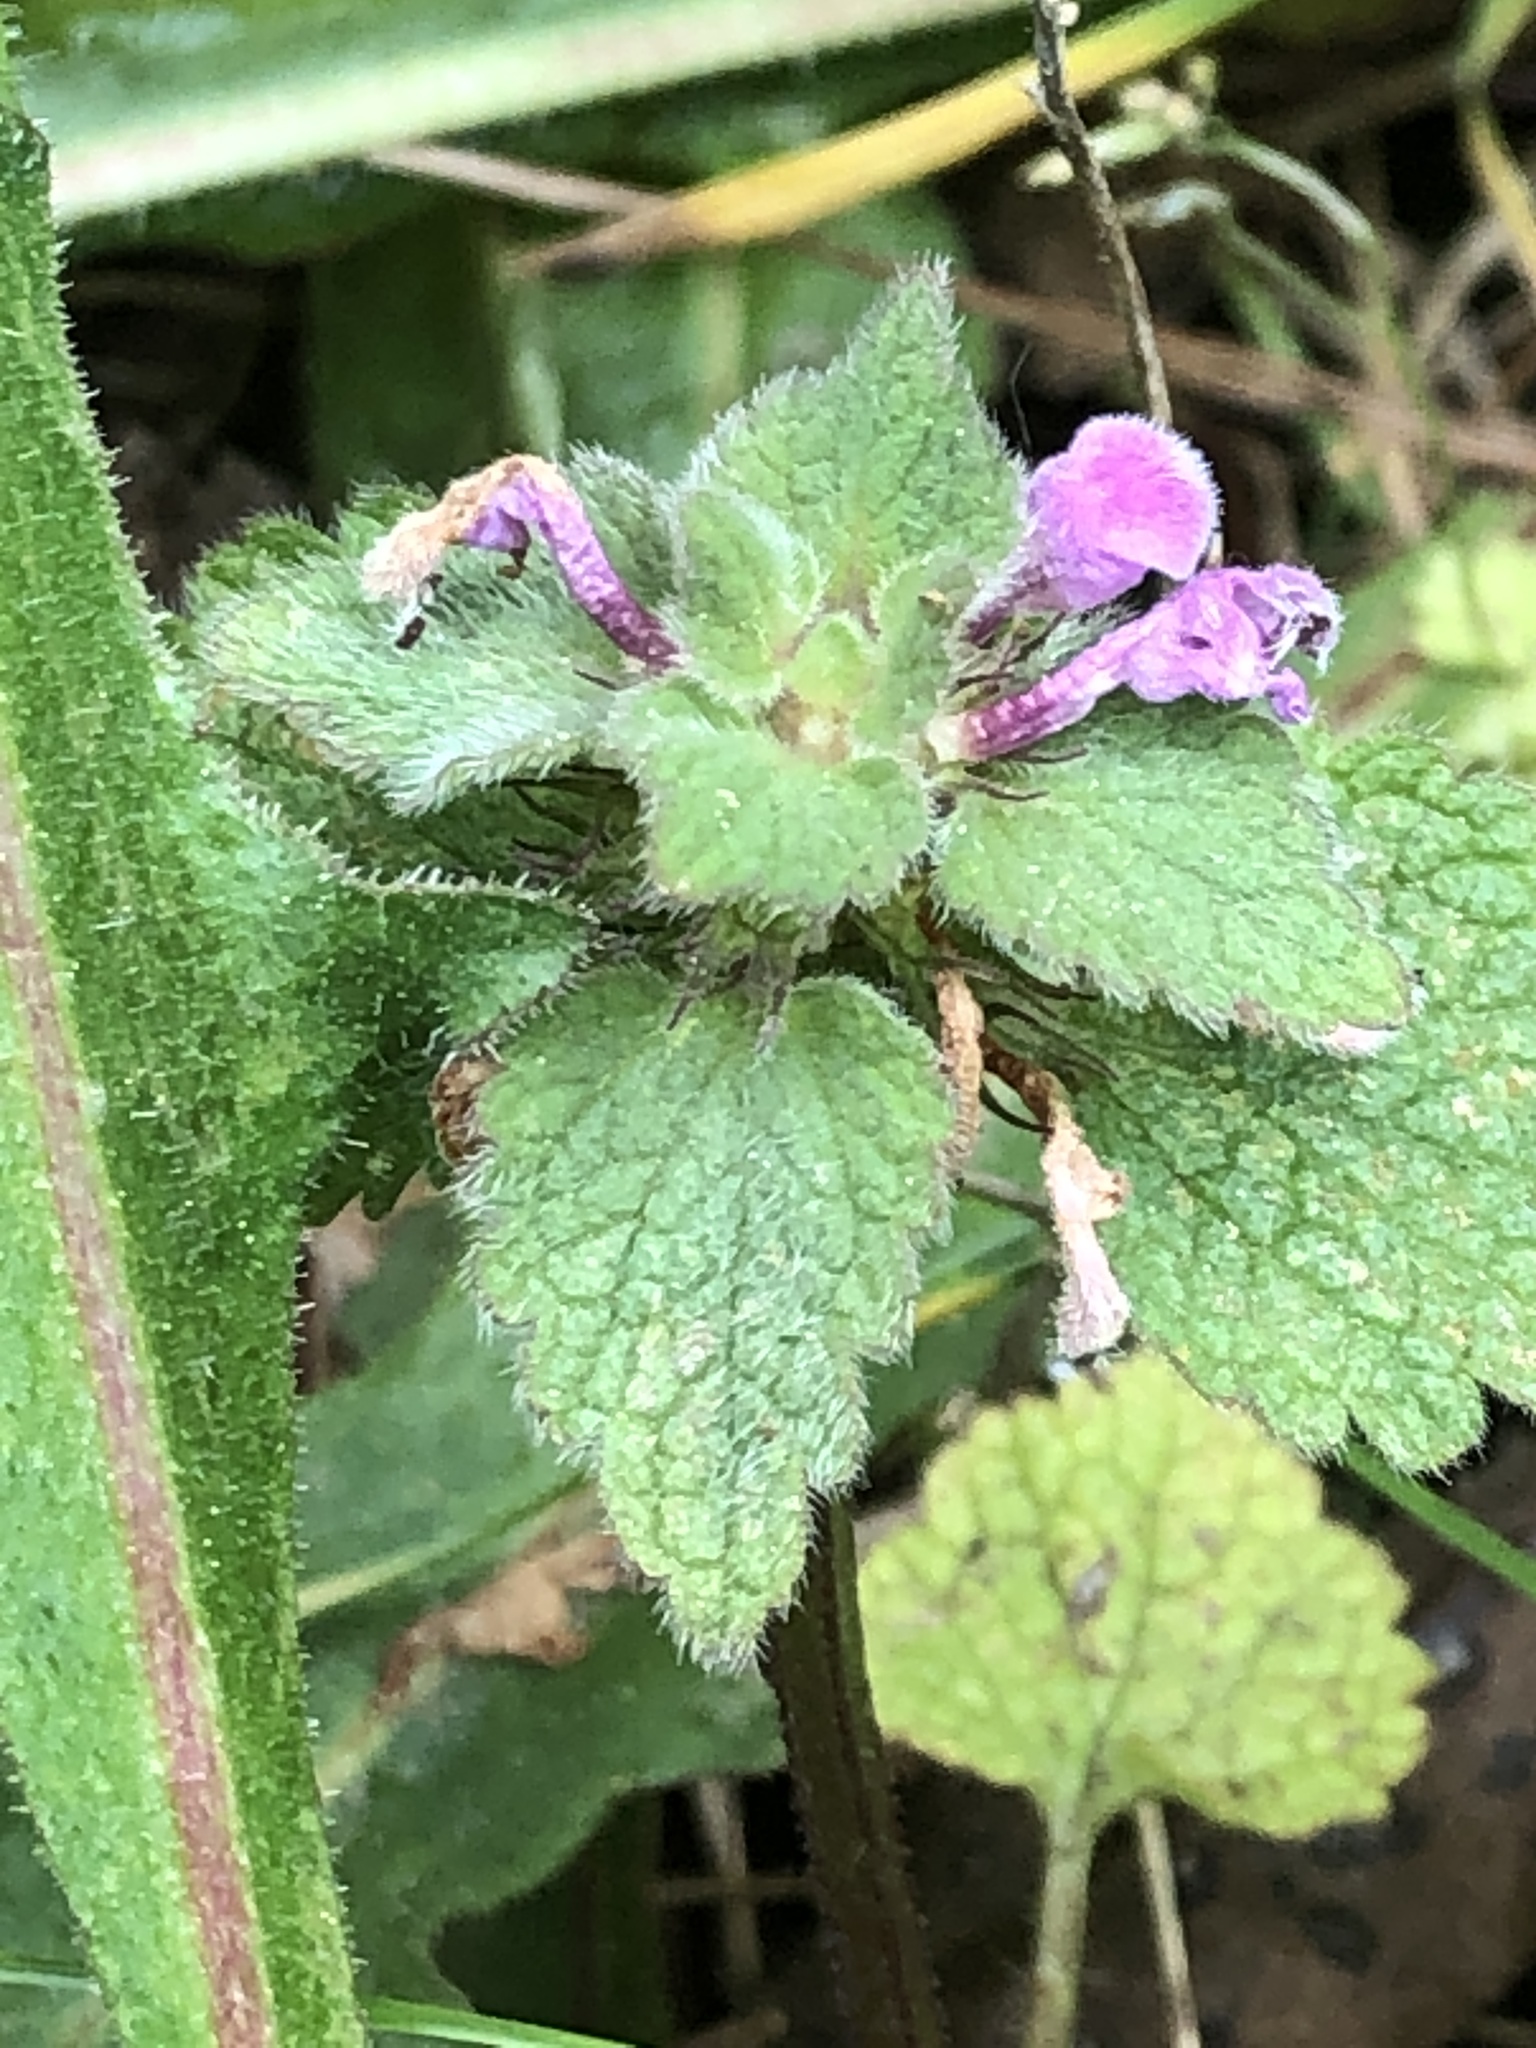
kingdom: Plantae
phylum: Tracheophyta
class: Magnoliopsida
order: Lamiales
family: Lamiaceae
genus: Lamium
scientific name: Lamium purpureum
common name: Red dead-nettle
